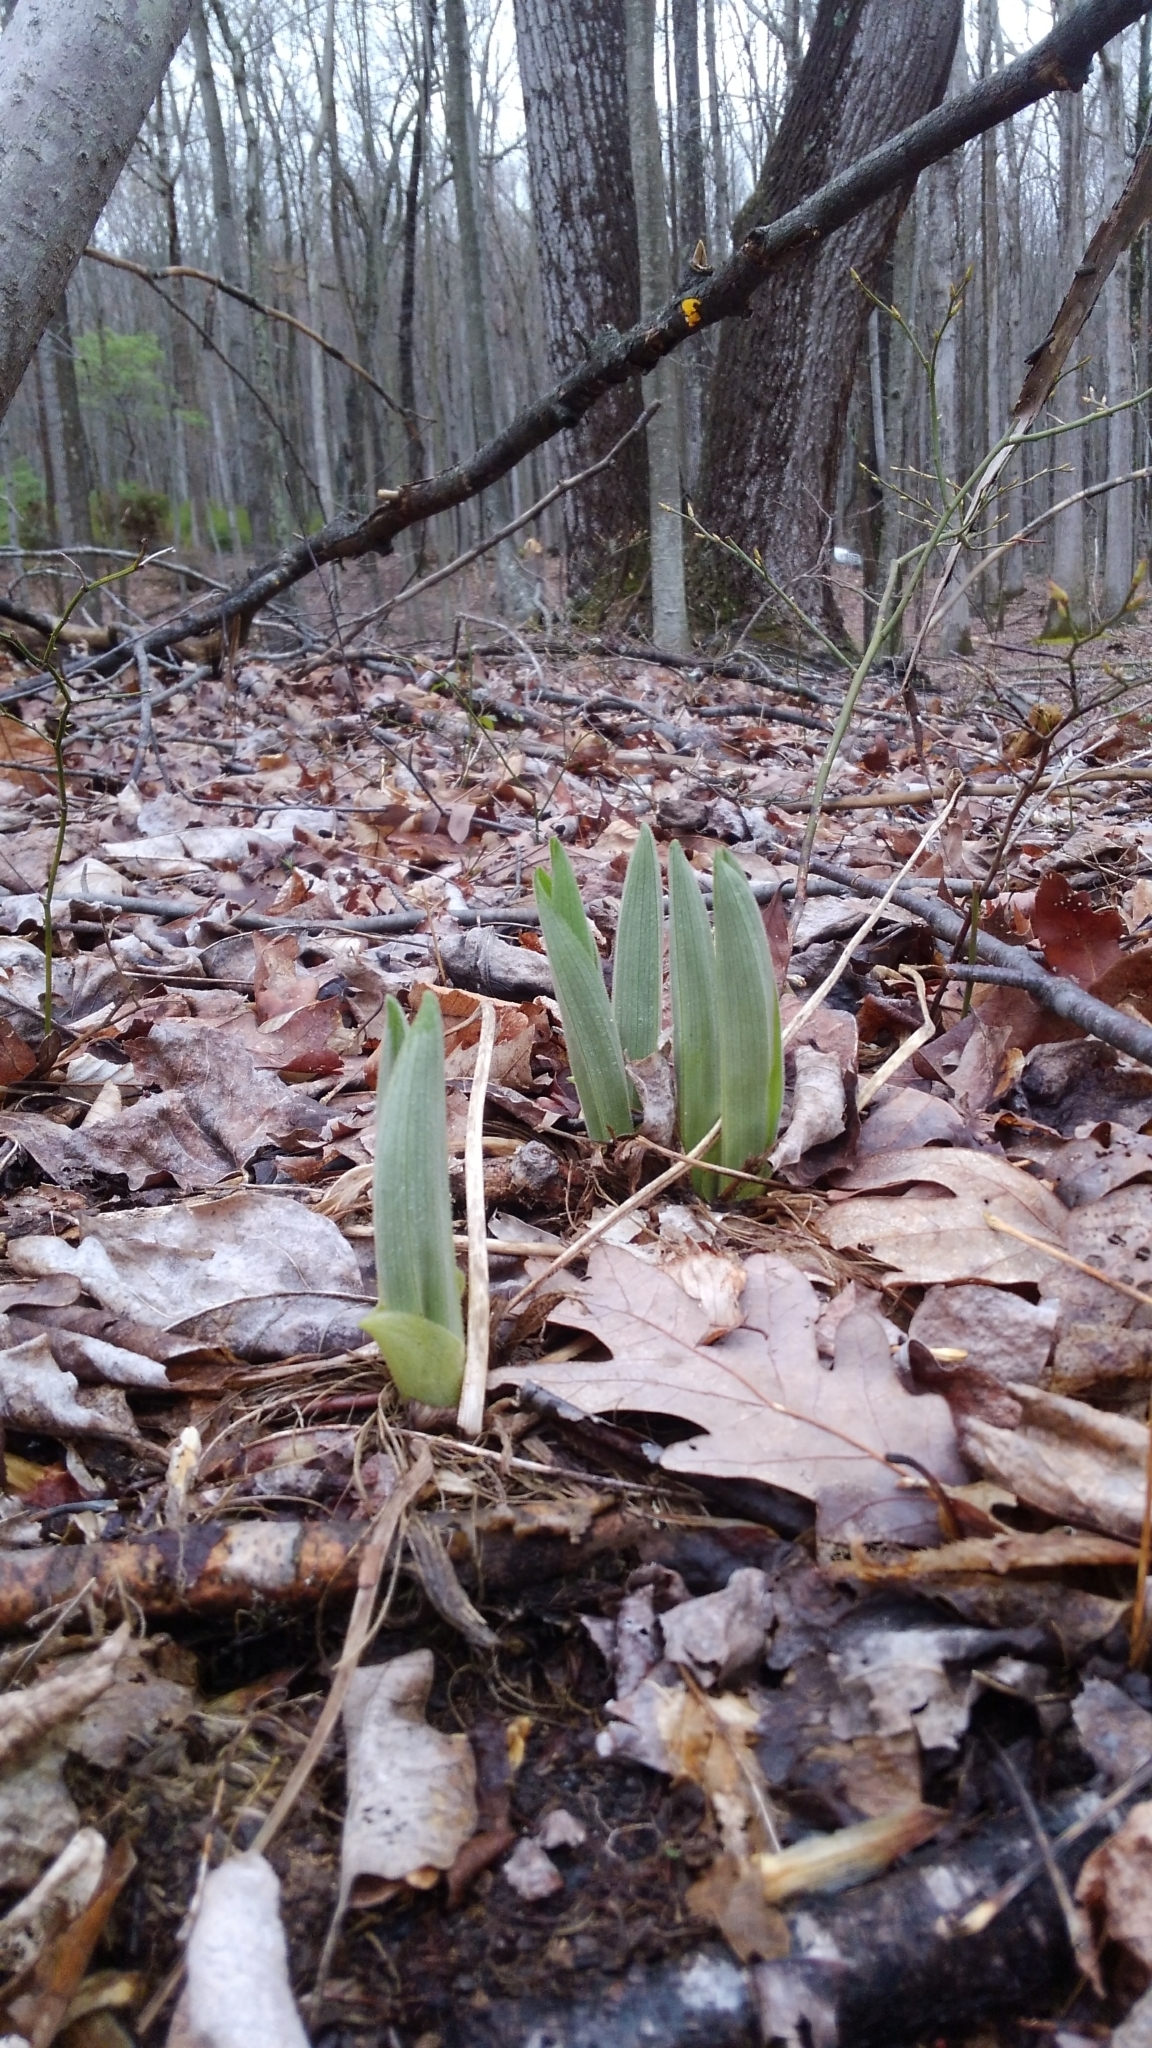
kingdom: Plantae
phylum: Tracheophyta
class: Liliopsida
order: Asparagales
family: Orchidaceae
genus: Cypripedium
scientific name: Cypripedium acaule
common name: Pink lady's-slipper
